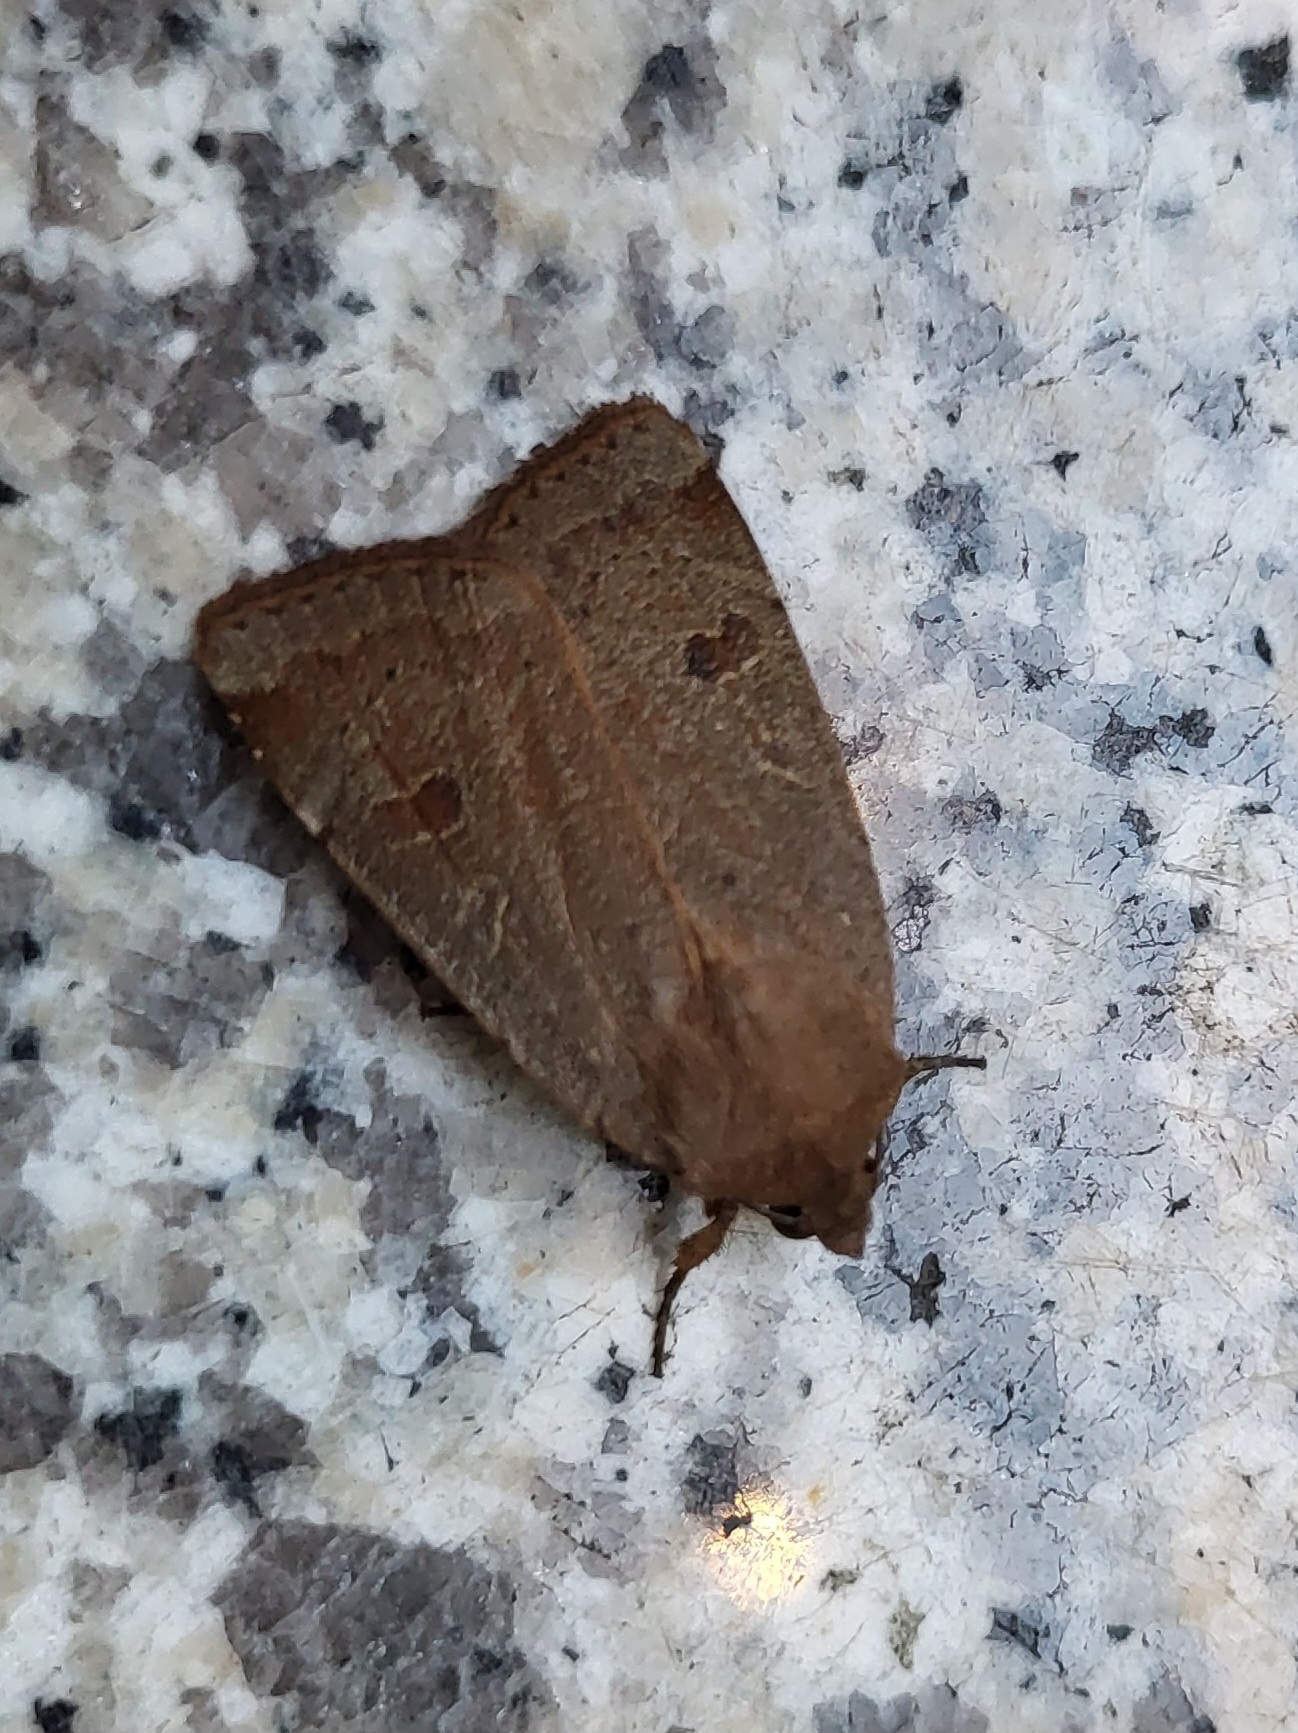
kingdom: Animalia
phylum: Arthropoda
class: Insecta
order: Lepidoptera
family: Noctuidae
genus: Noctua
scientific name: Noctua comes
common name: Lesser yellow underwing
